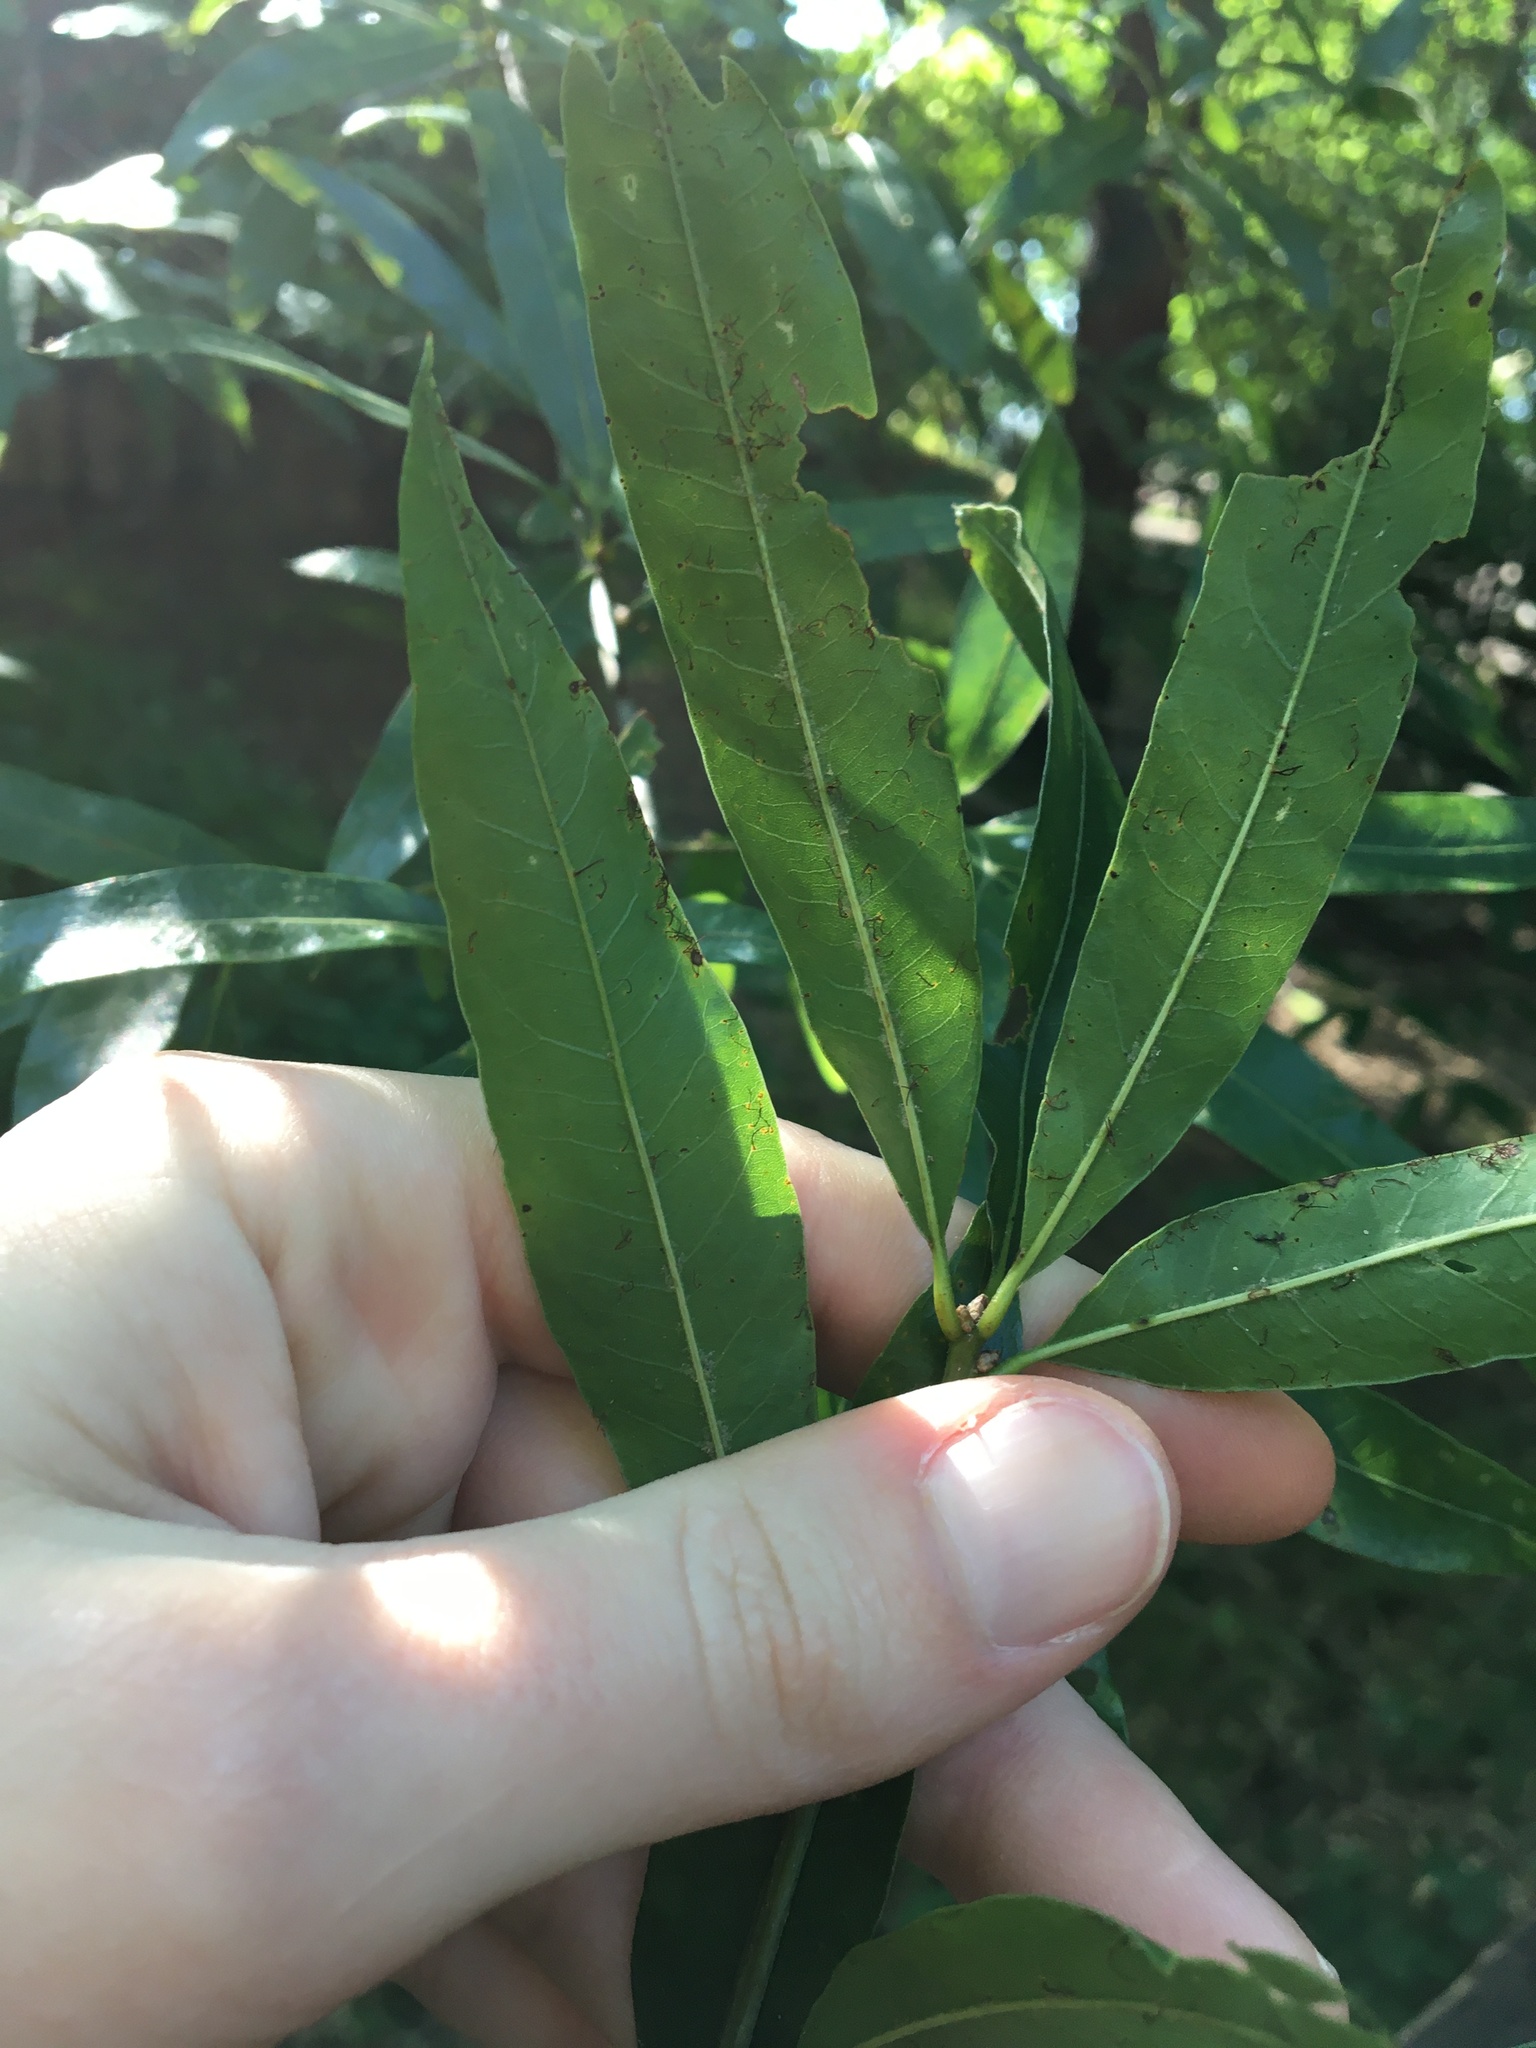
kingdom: Plantae
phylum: Tracheophyta
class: Magnoliopsida
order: Fagales
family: Fagaceae
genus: Quercus
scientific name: Quercus phellos
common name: Willow oak
